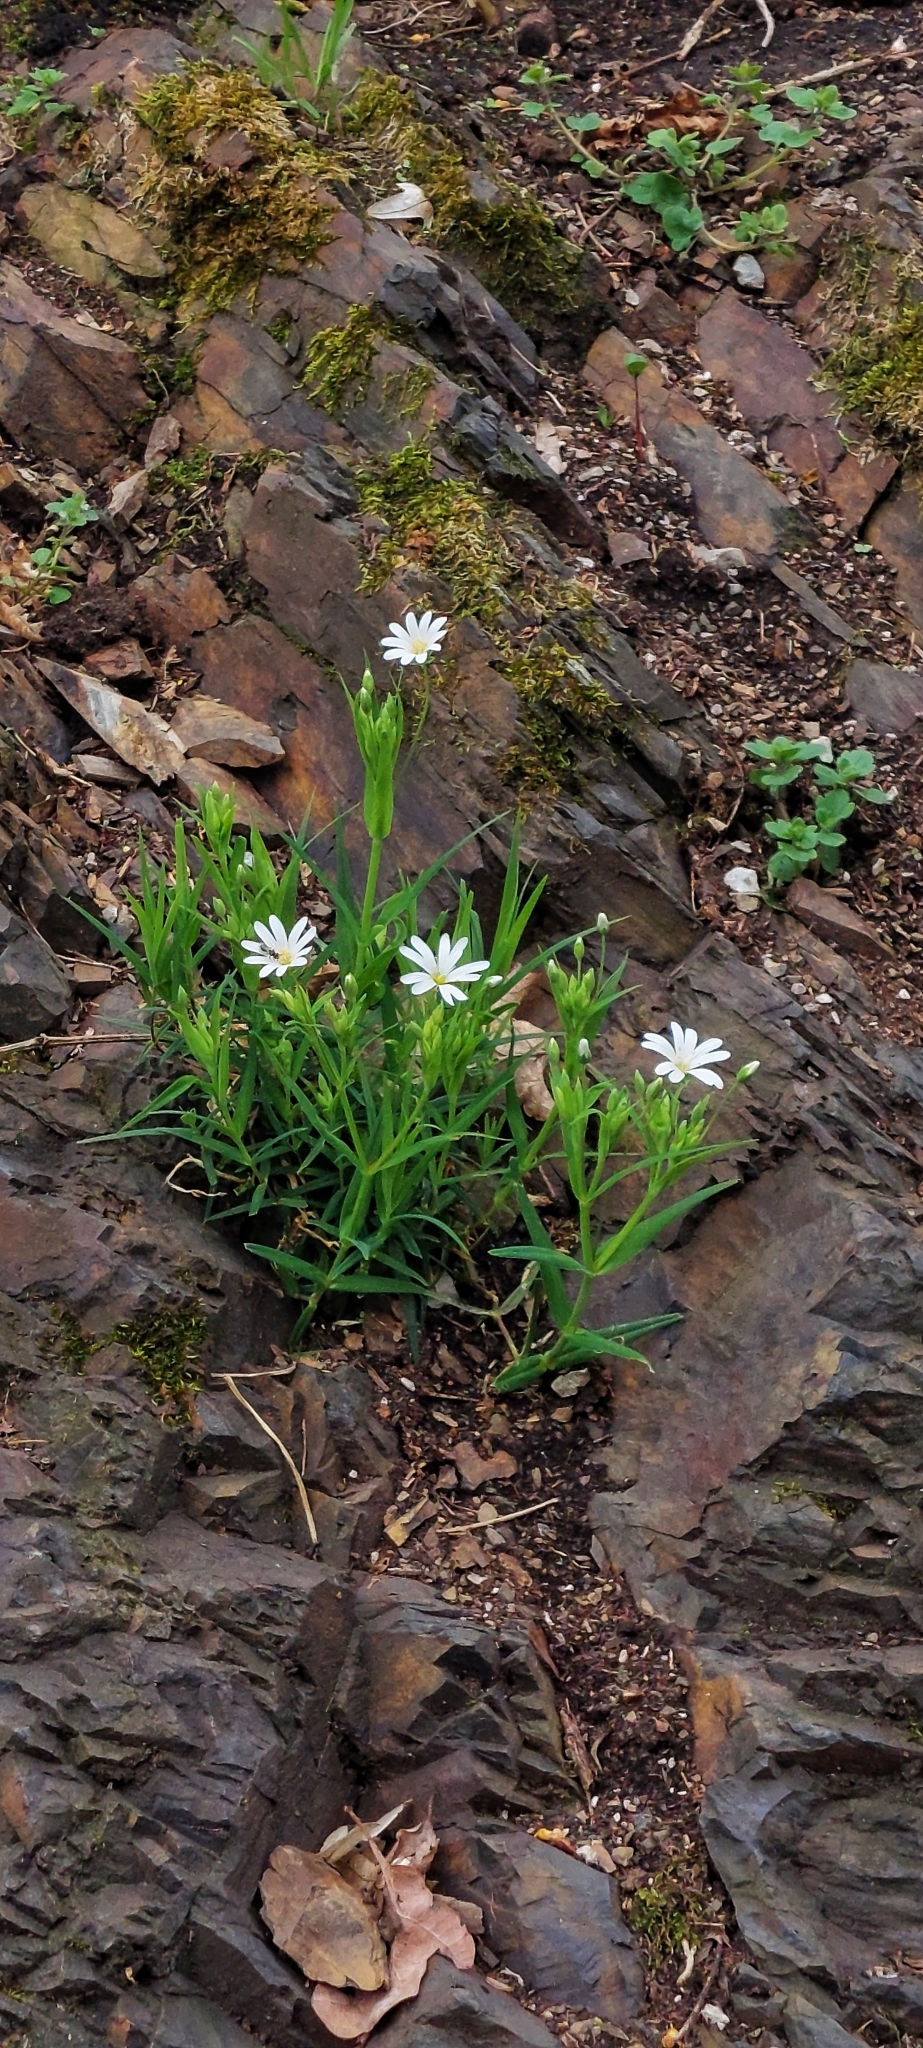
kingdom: Plantae
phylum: Tracheophyta
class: Magnoliopsida
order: Caryophyllales
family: Caryophyllaceae
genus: Rabelera
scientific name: Rabelera holostea
